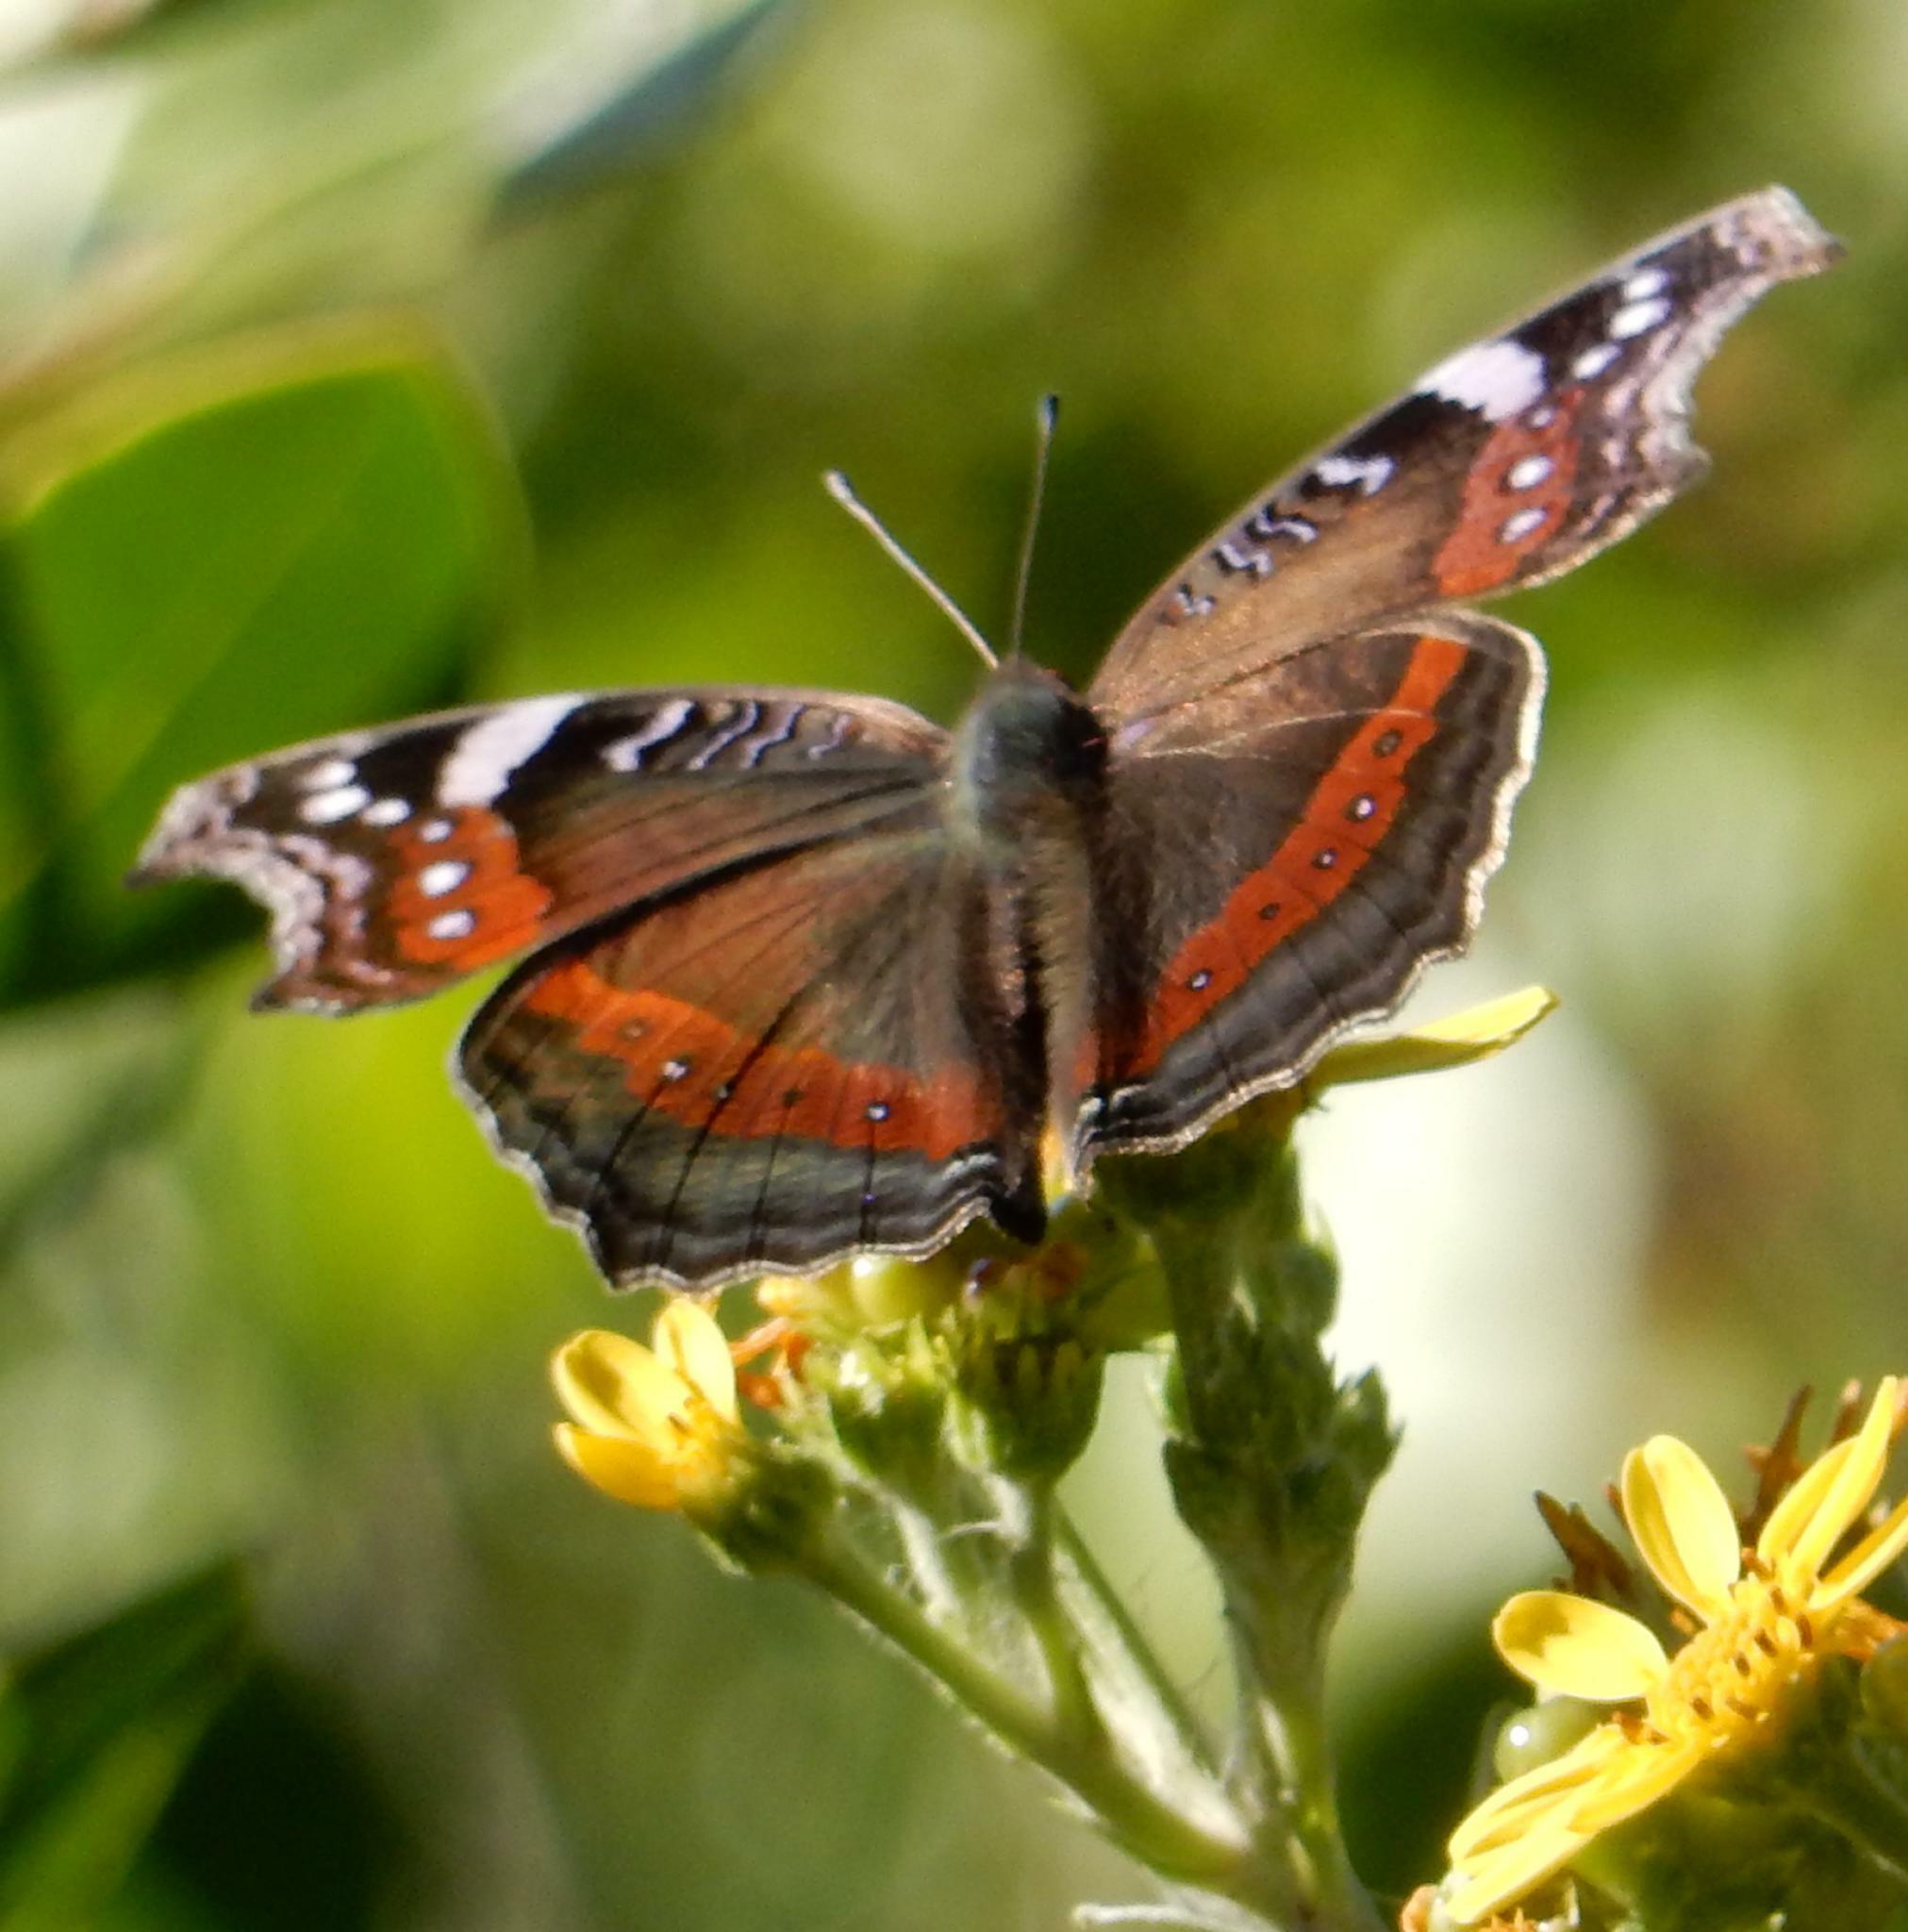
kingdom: Animalia
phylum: Arthropoda
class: Insecta
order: Lepidoptera
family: Nymphalidae
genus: Junonia
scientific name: Junonia archesia
